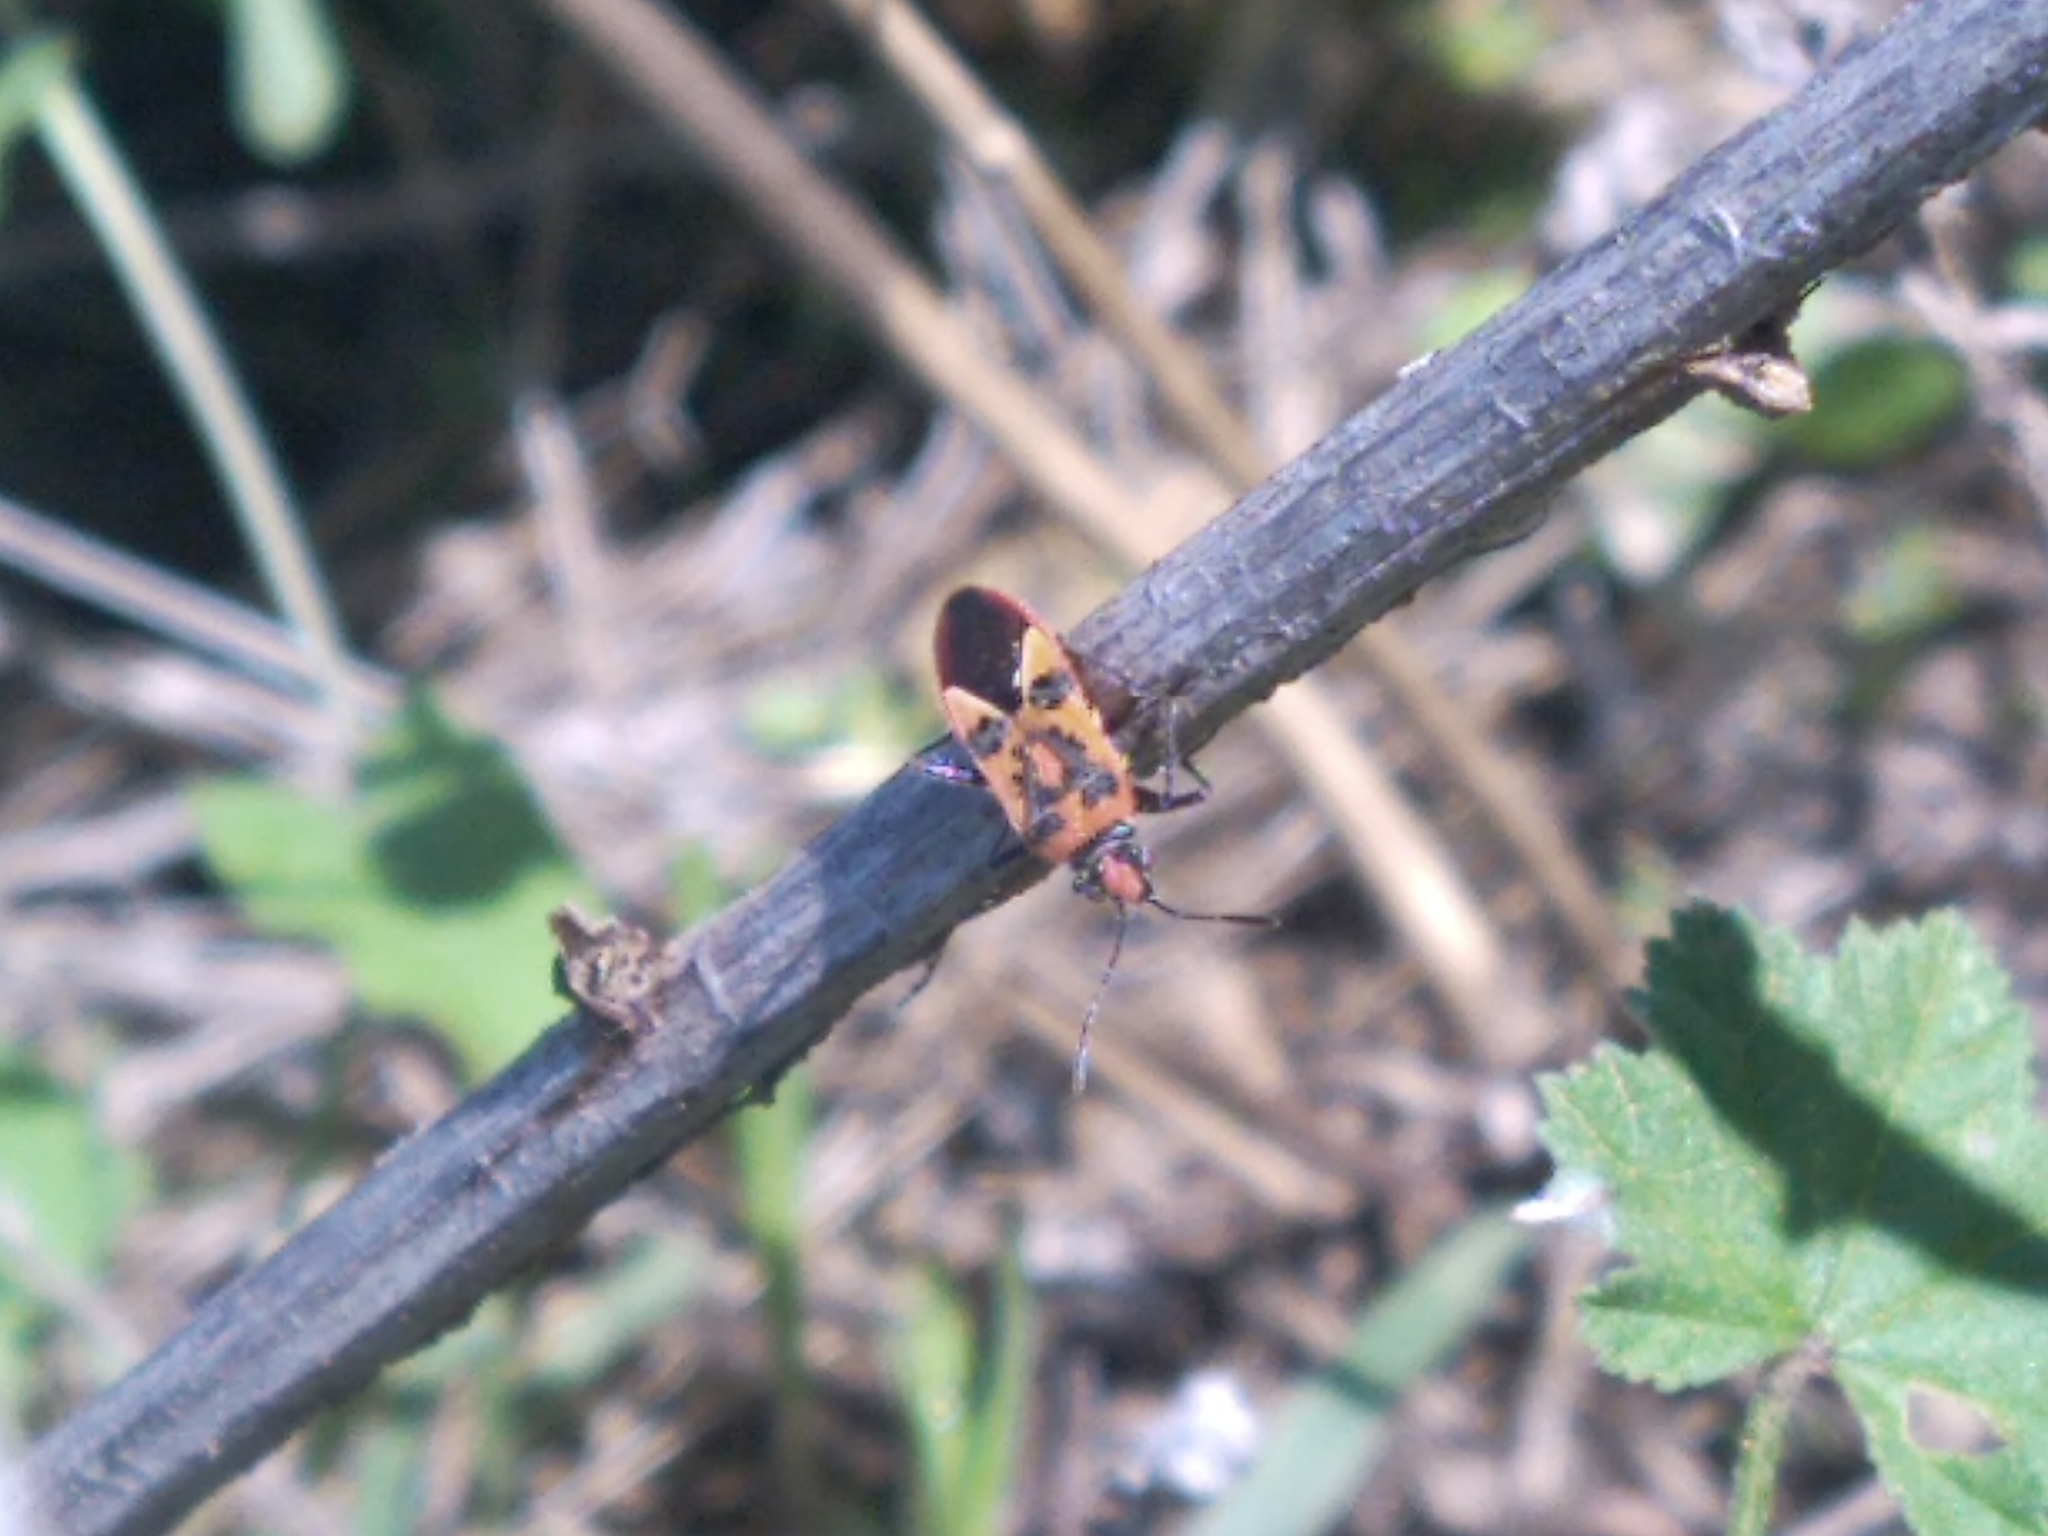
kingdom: Animalia
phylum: Arthropoda
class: Insecta
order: Hemiptera
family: Rhopalidae
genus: Corizus
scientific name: Corizus hyoscyami
